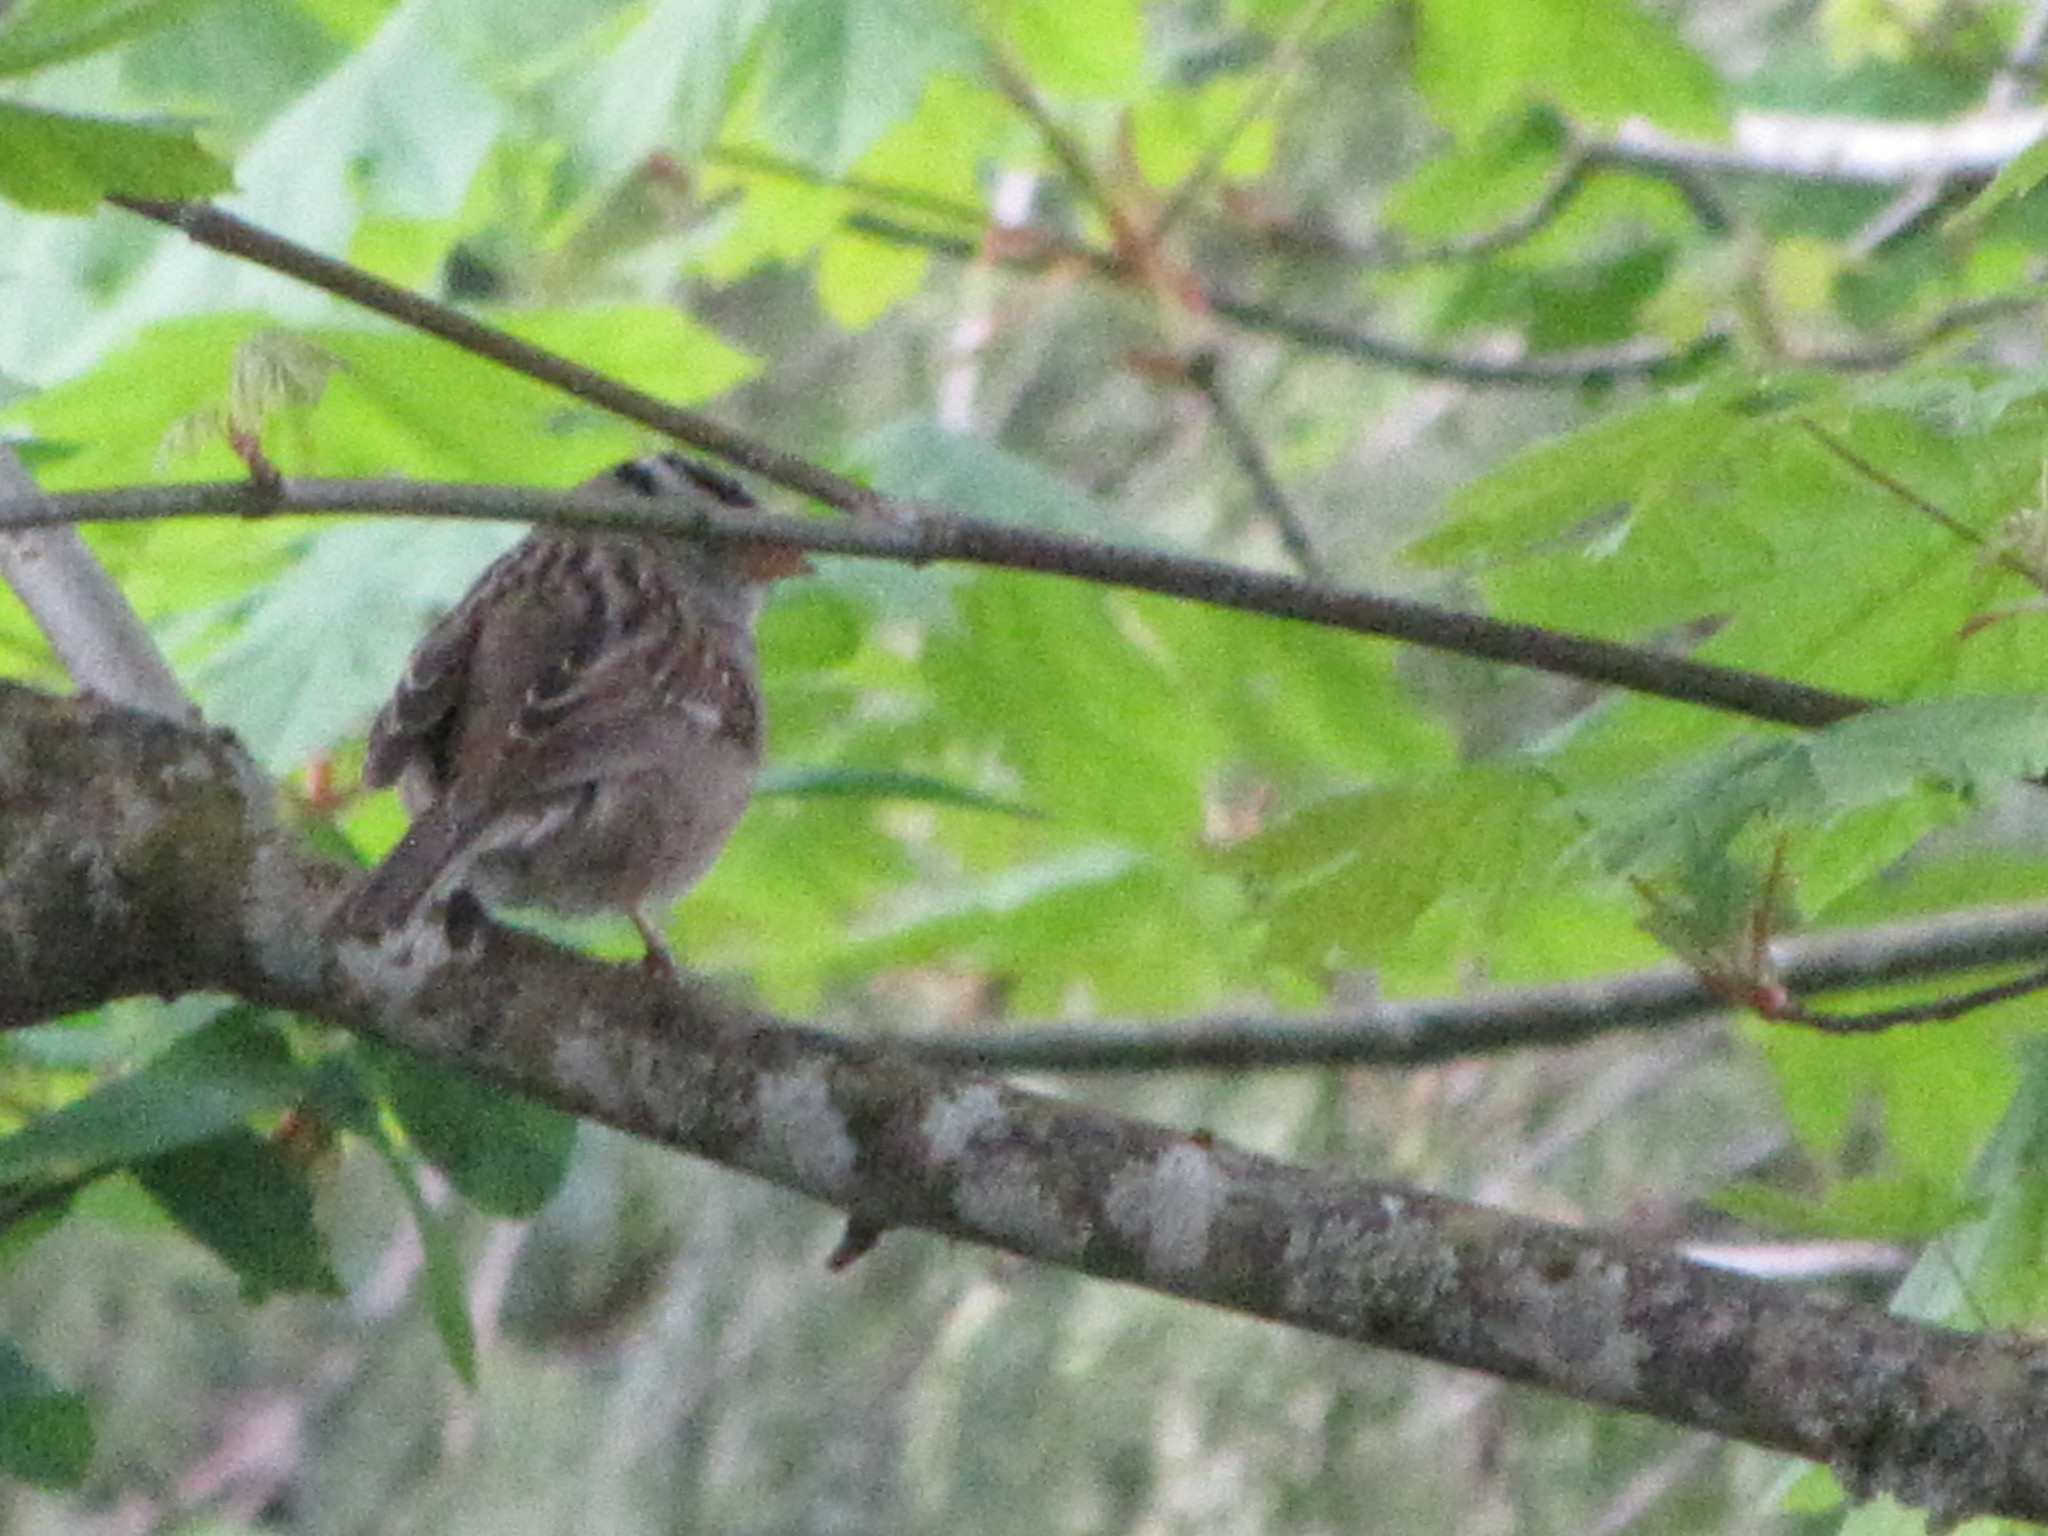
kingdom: Animalia
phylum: Chordata
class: Aves
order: Passeriformes
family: Passerellidae
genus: Zonotrichia
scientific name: Zonotrichia leucophrys
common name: White-crowned sparrow
